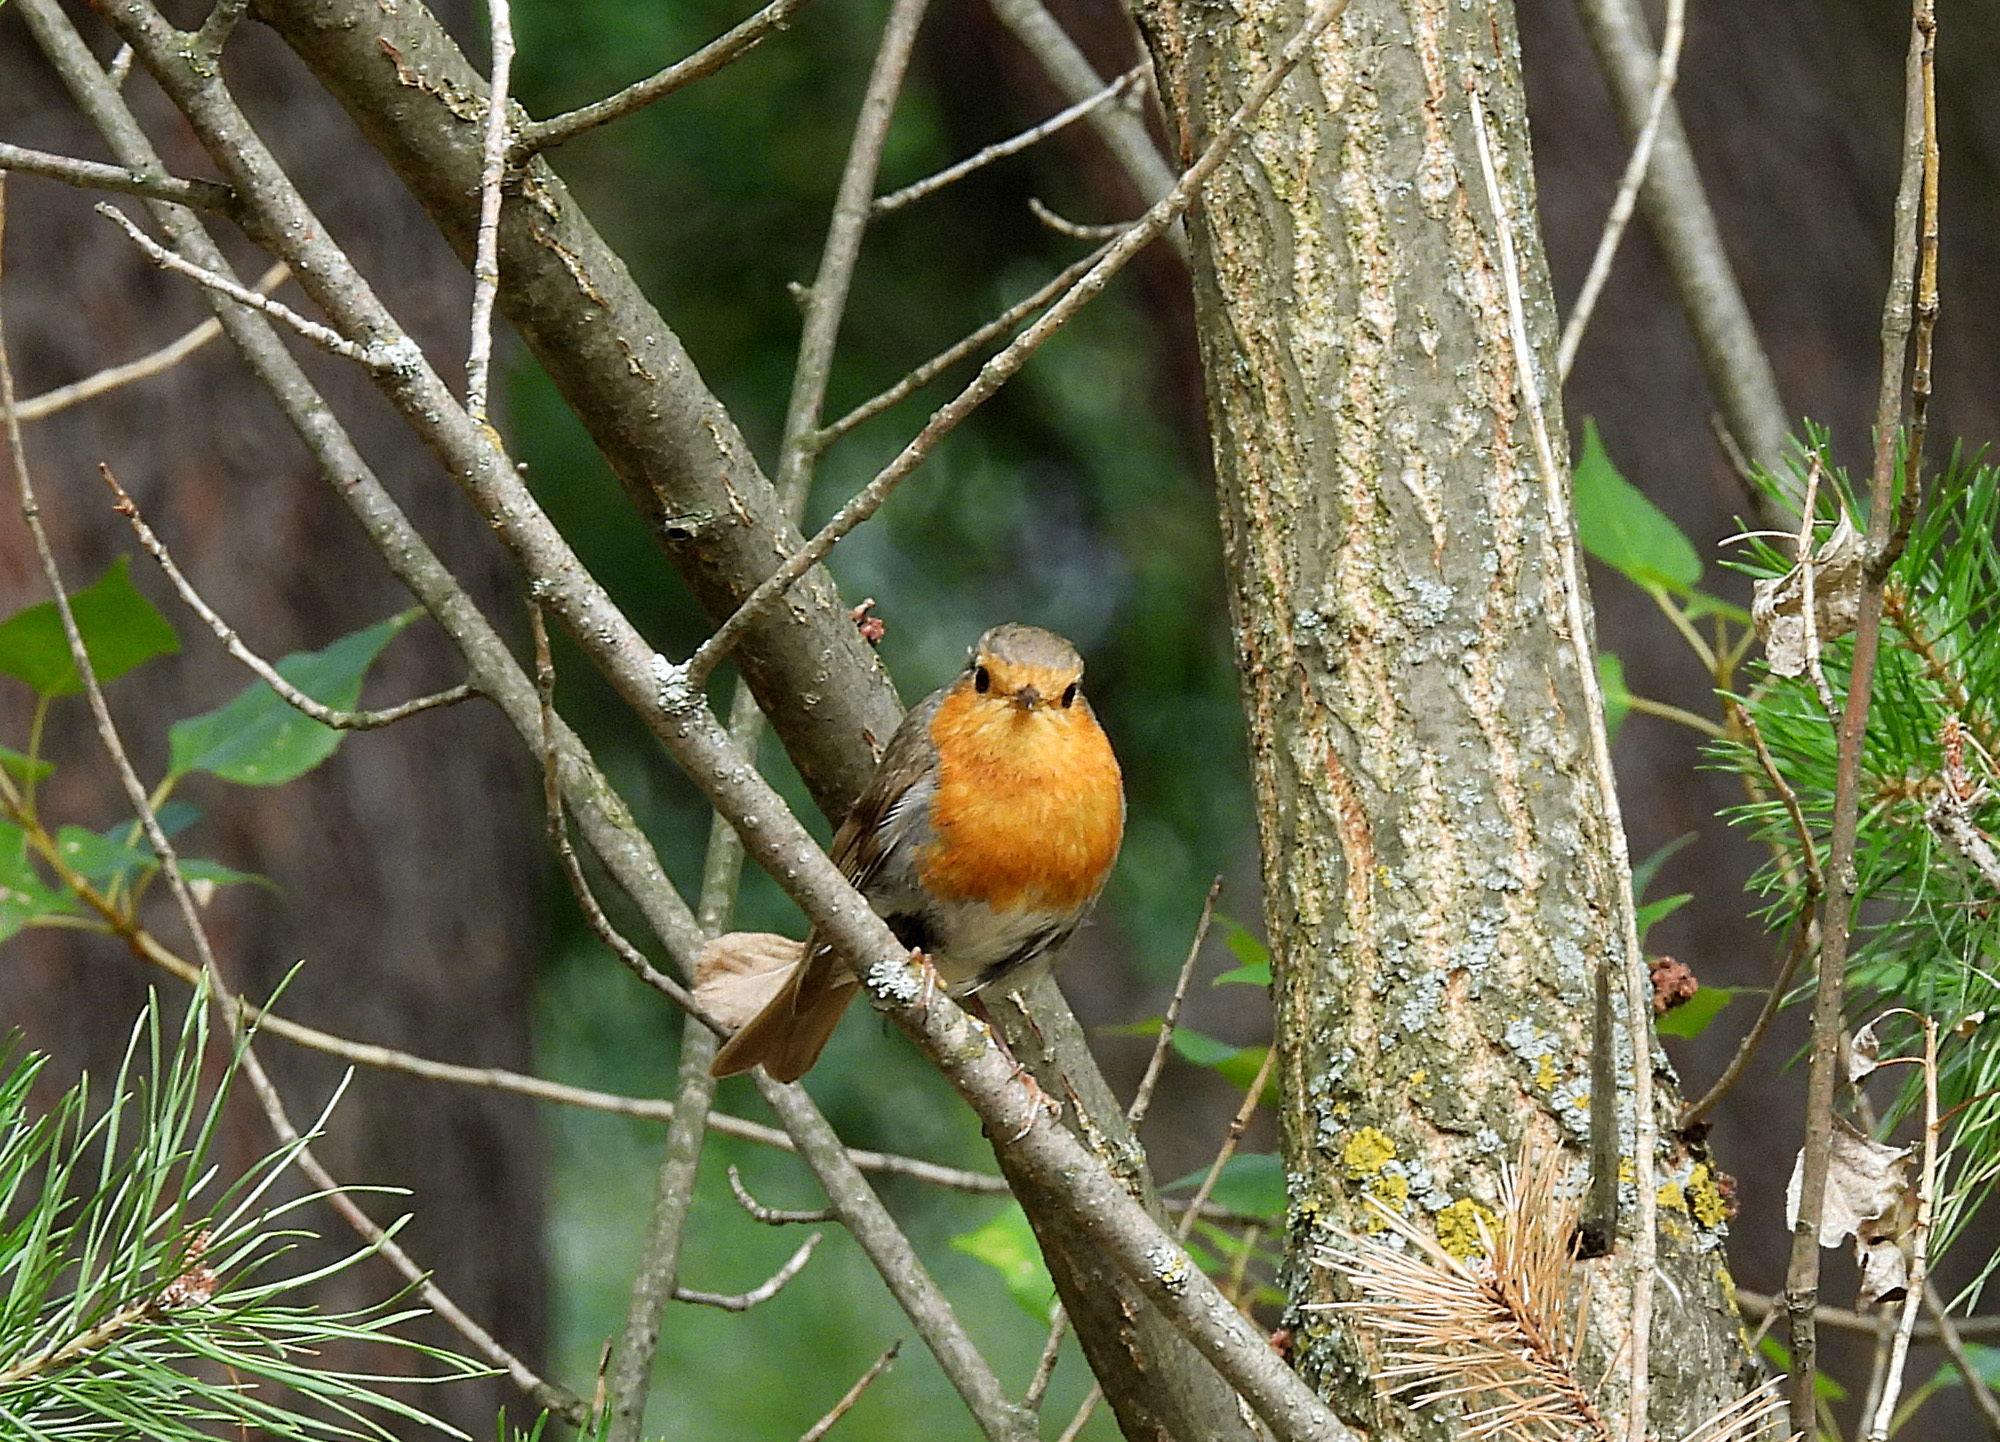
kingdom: Animalia
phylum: Chordata
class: Aves
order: Passeriformes
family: Muscicapidae
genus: Erithacus
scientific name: Erithacus rubecula
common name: European robin
